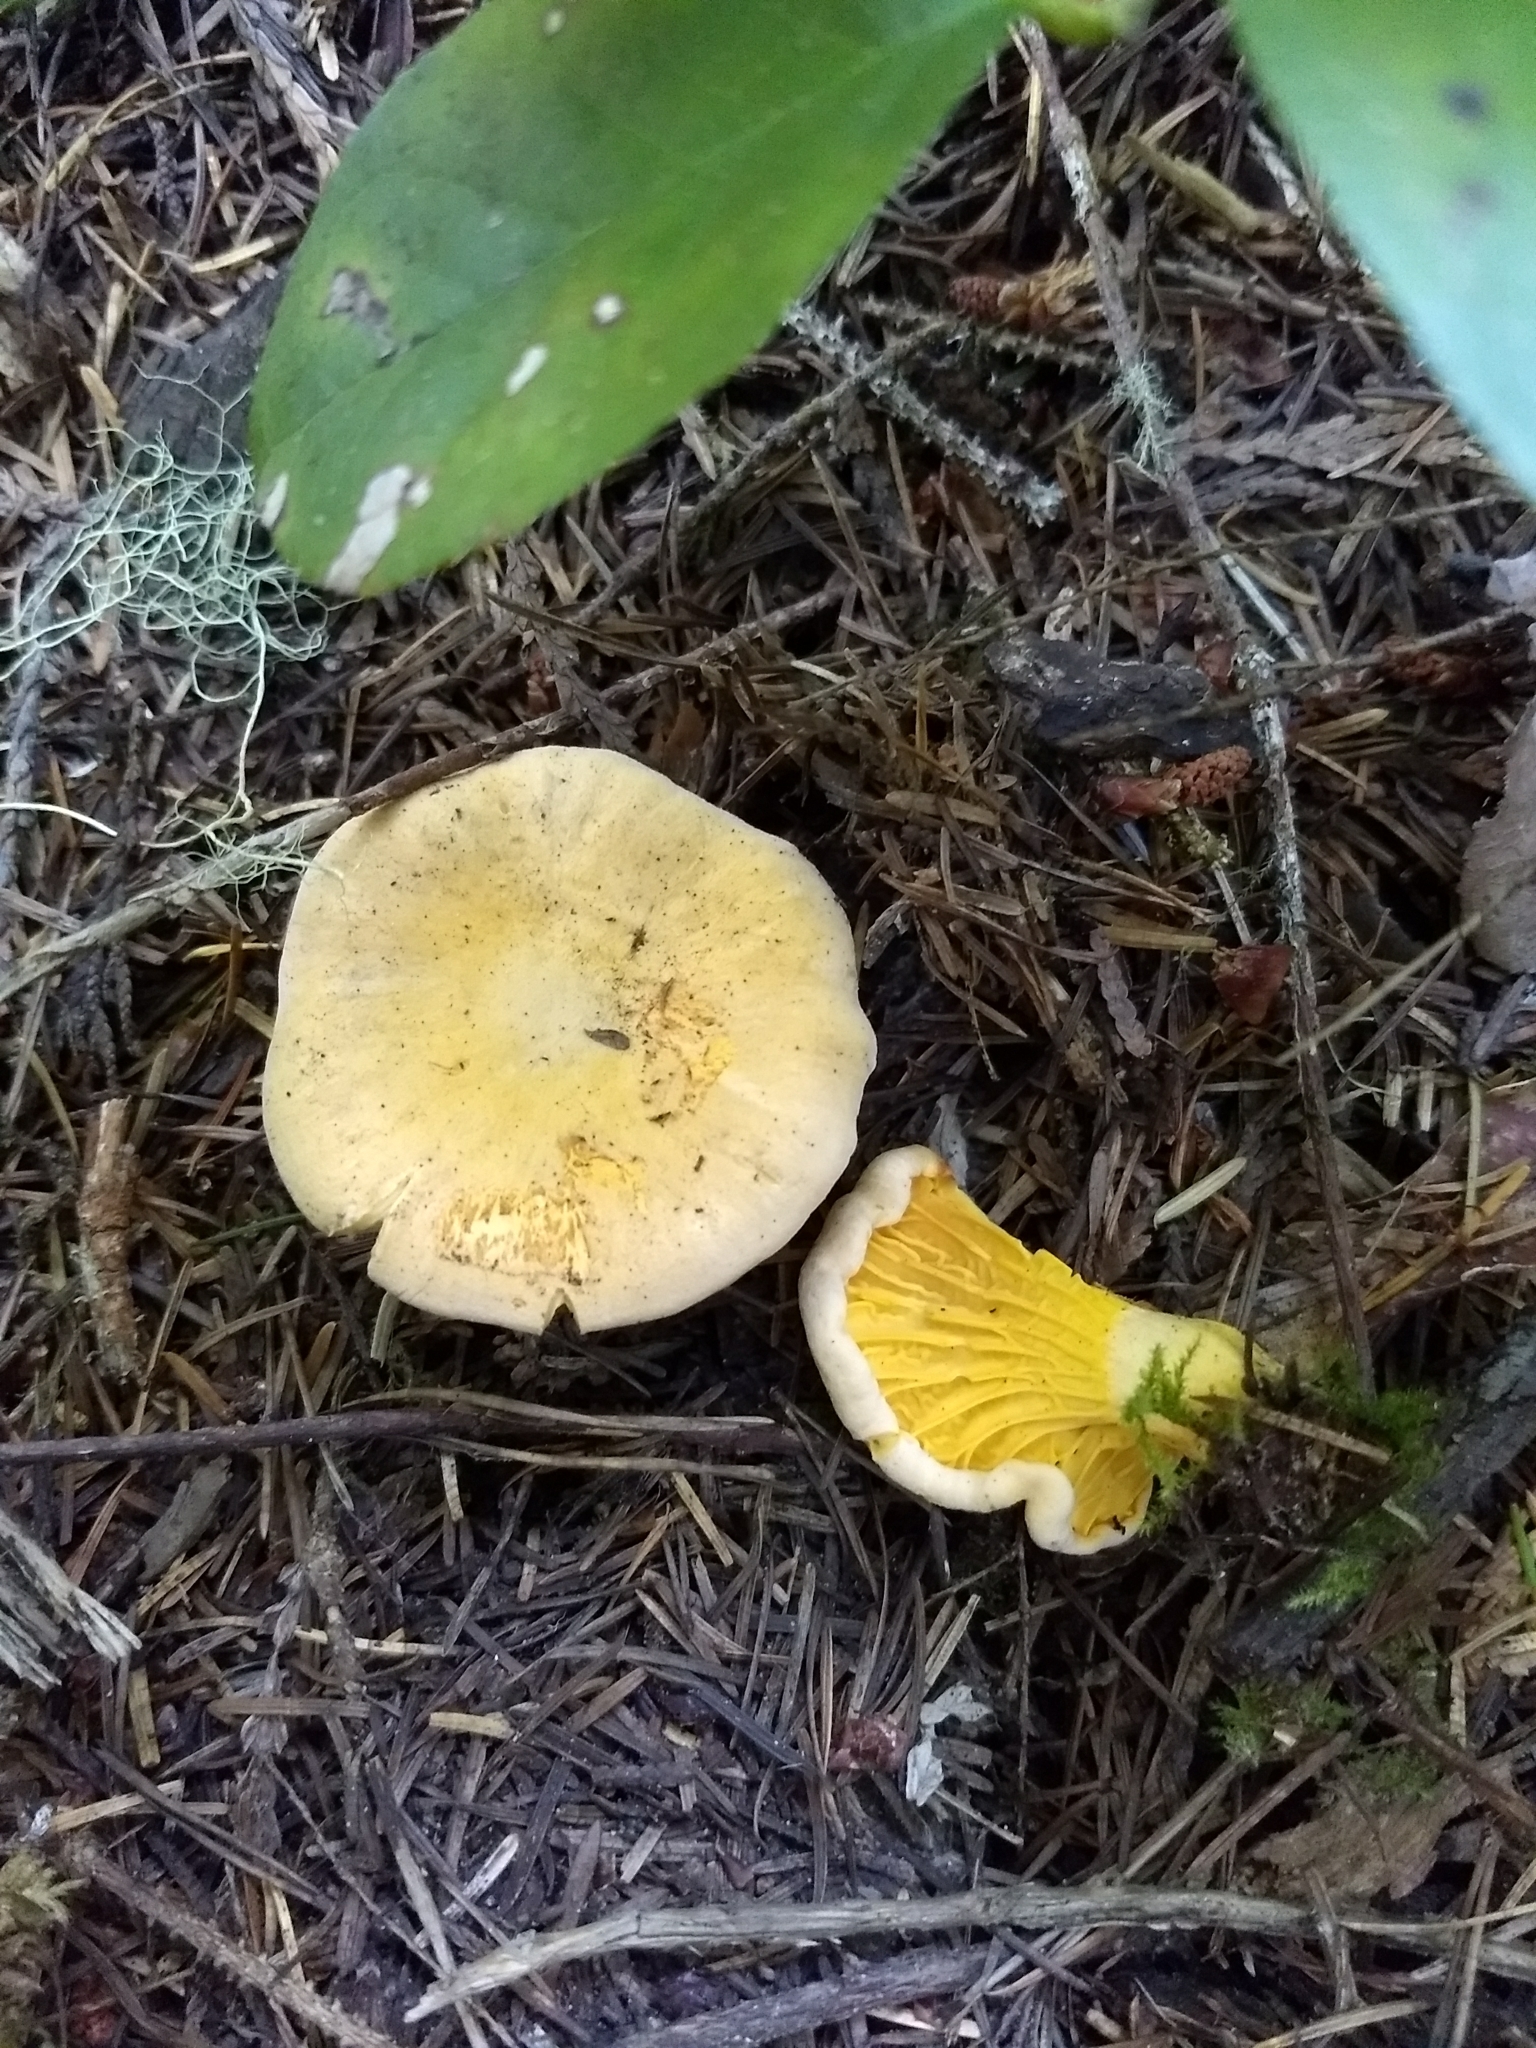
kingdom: Fungi
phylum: Basidiomycota
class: Agaricomycetes
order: Cantharellales
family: Hydnaceae
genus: Cantharellus
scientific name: Cantharellus roseocanus
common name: Rainbow chanterelle
